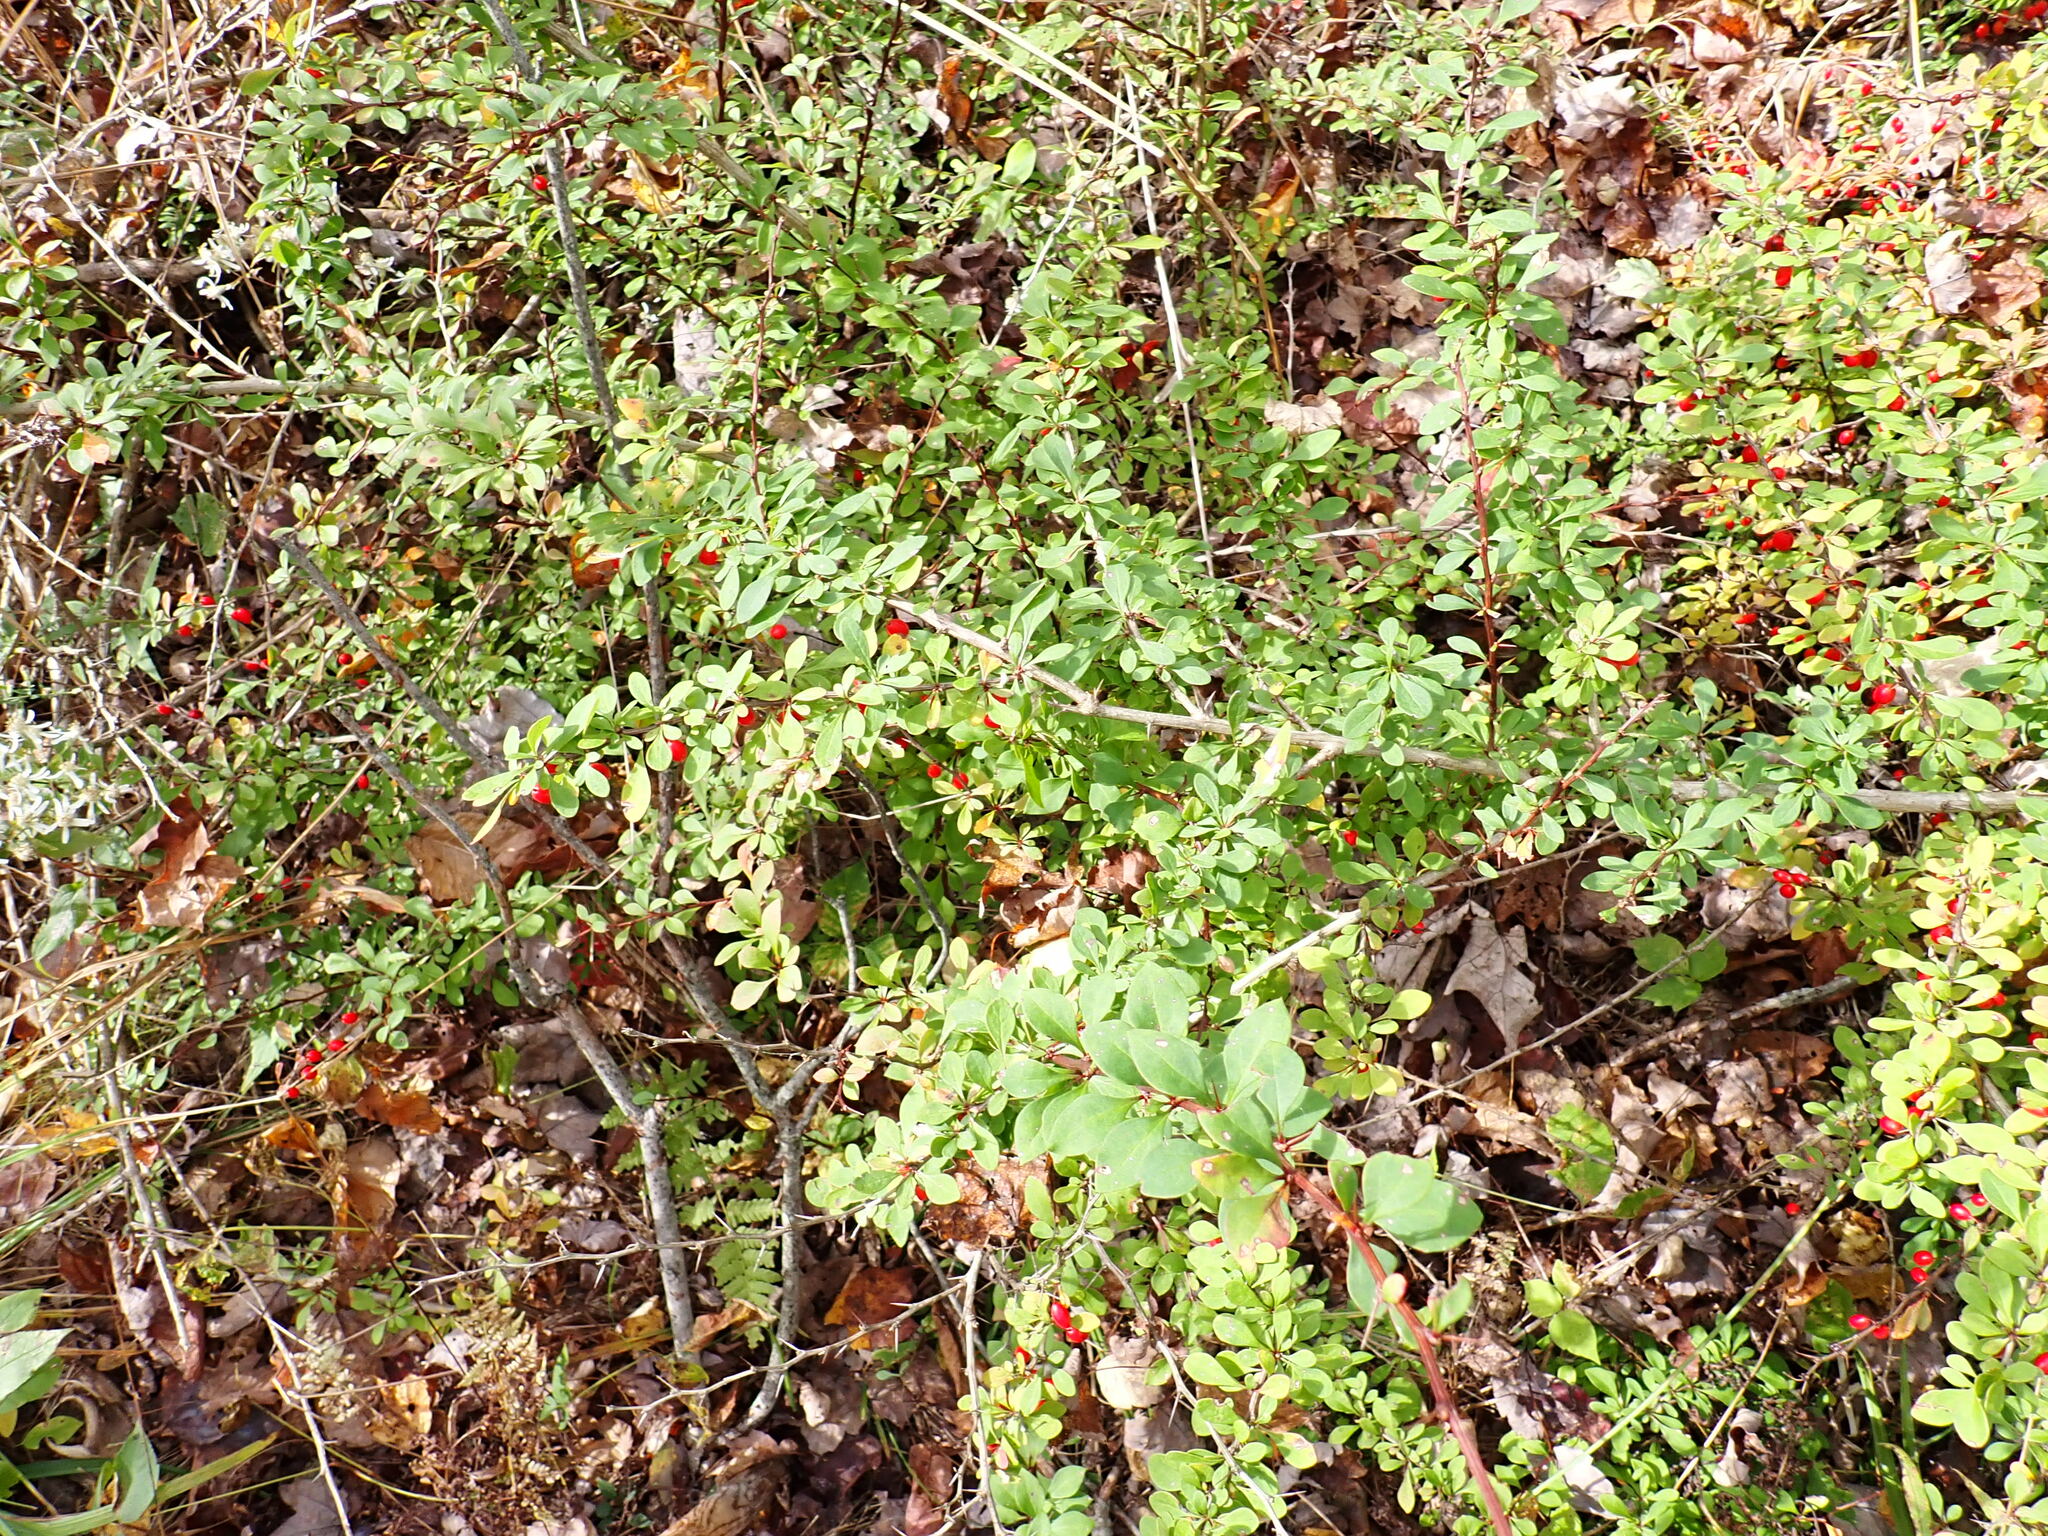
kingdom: Plantae
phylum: Tracheophyta
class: Magnoliopsida
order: Ranunculales
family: Berberidaceae
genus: Berberis
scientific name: Berberis thunbergii
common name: Japanese barberry
